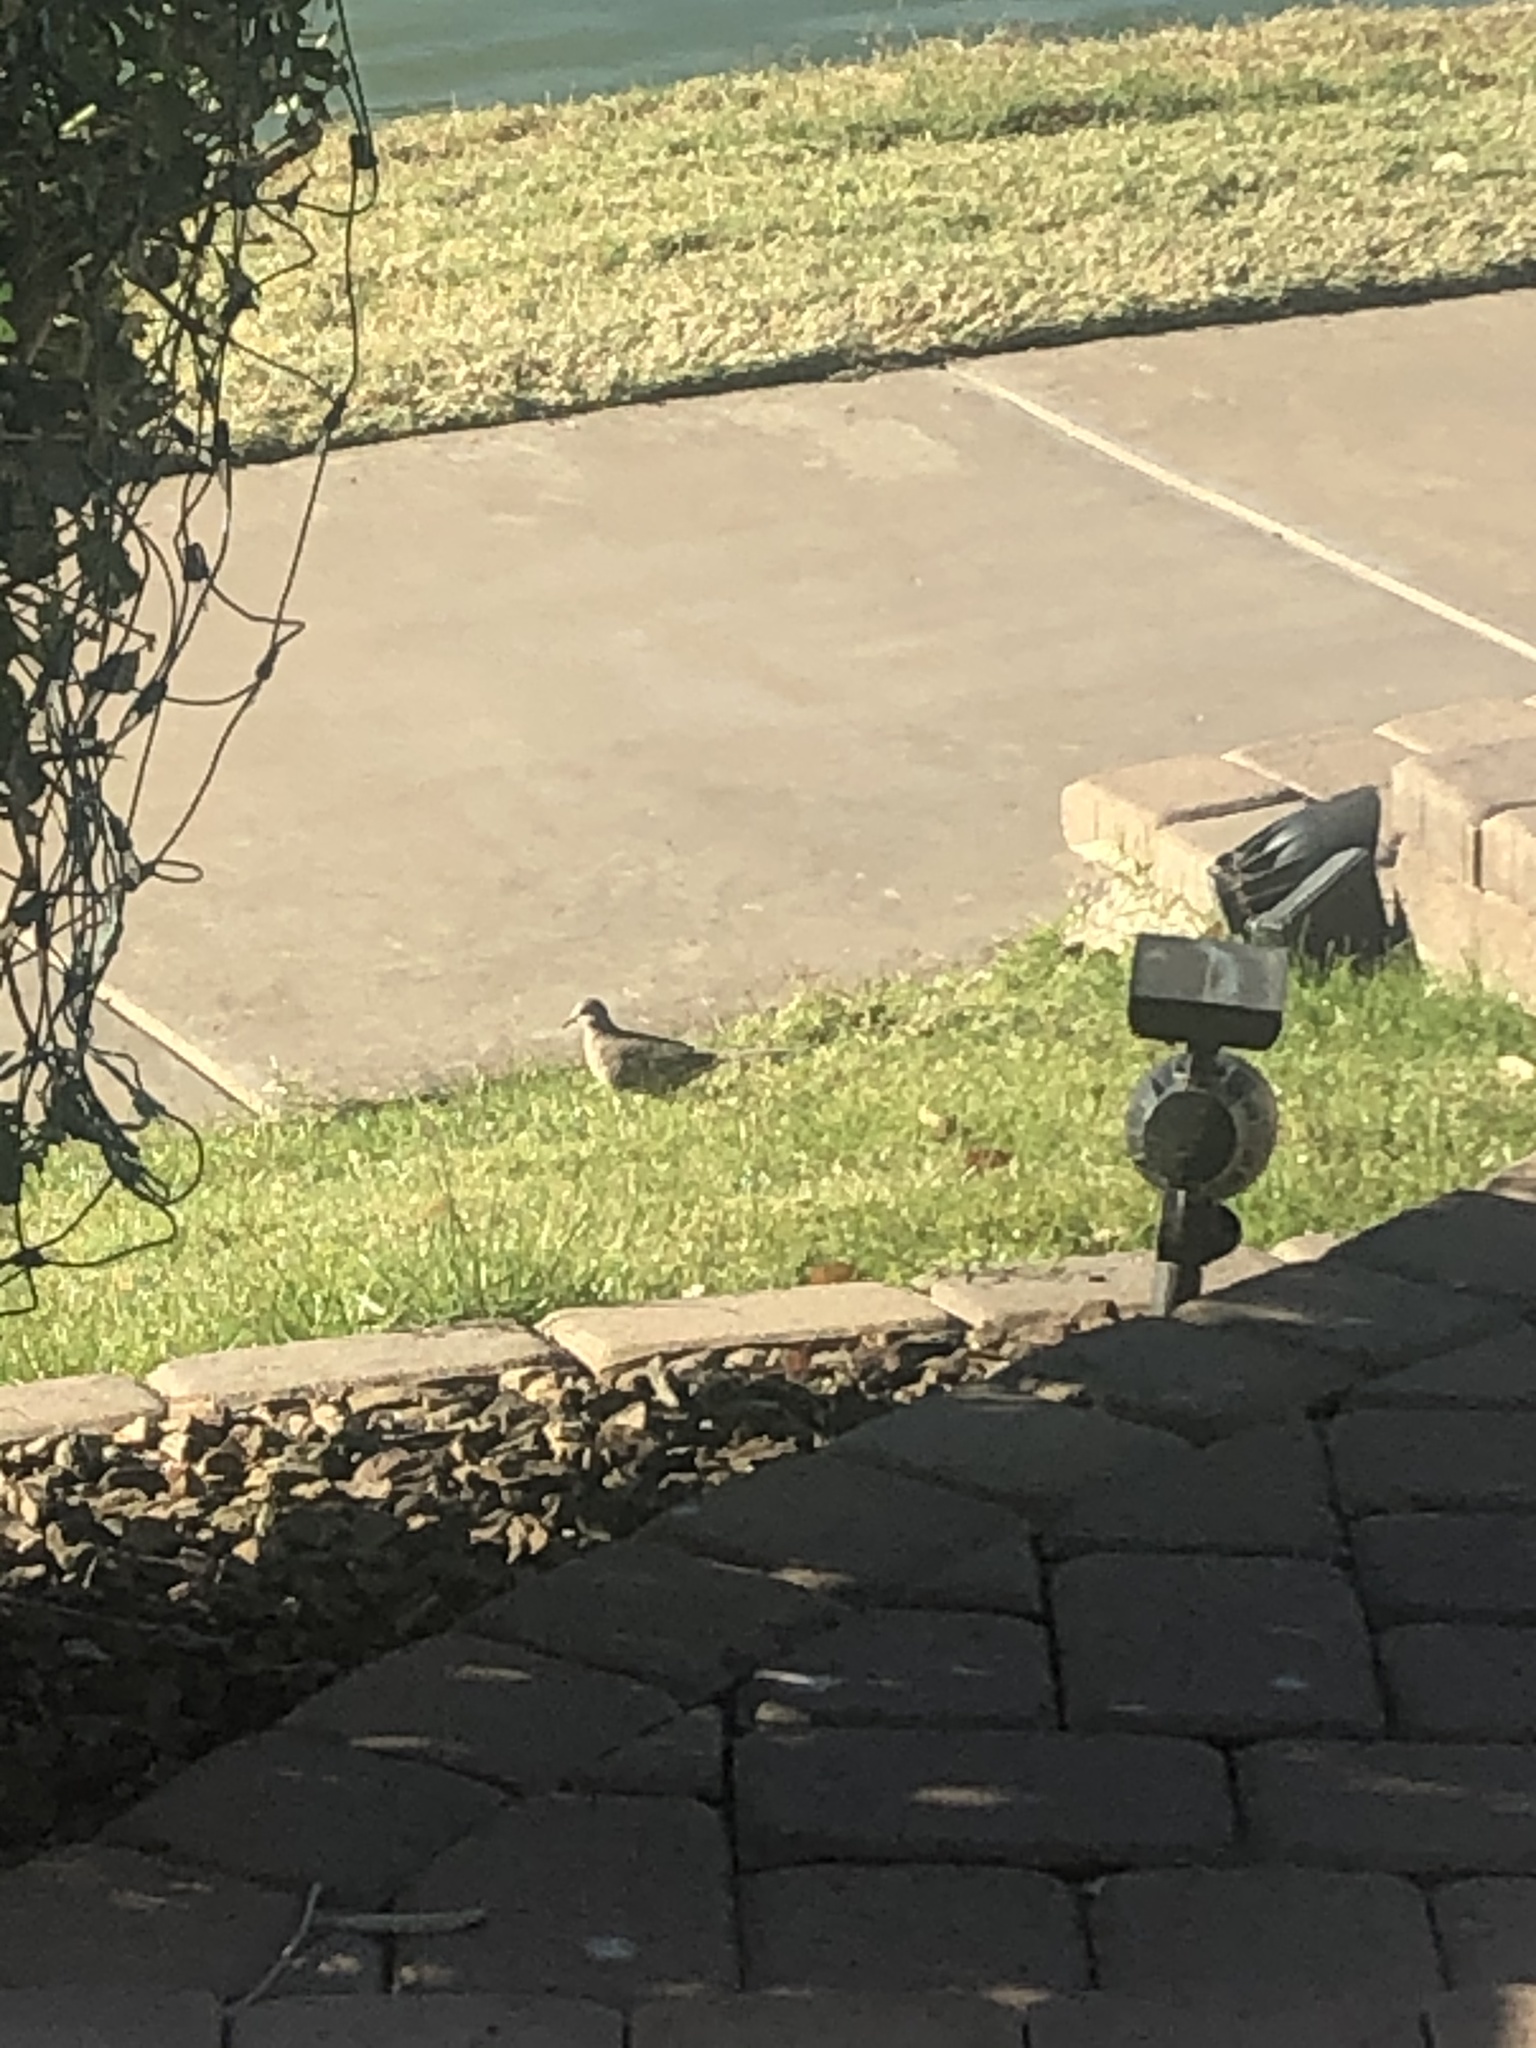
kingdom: Animalia
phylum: Chordata
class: Aves
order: Columbiformes
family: Columbidae
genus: Columbina
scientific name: Columbina inca
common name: Inca dove
